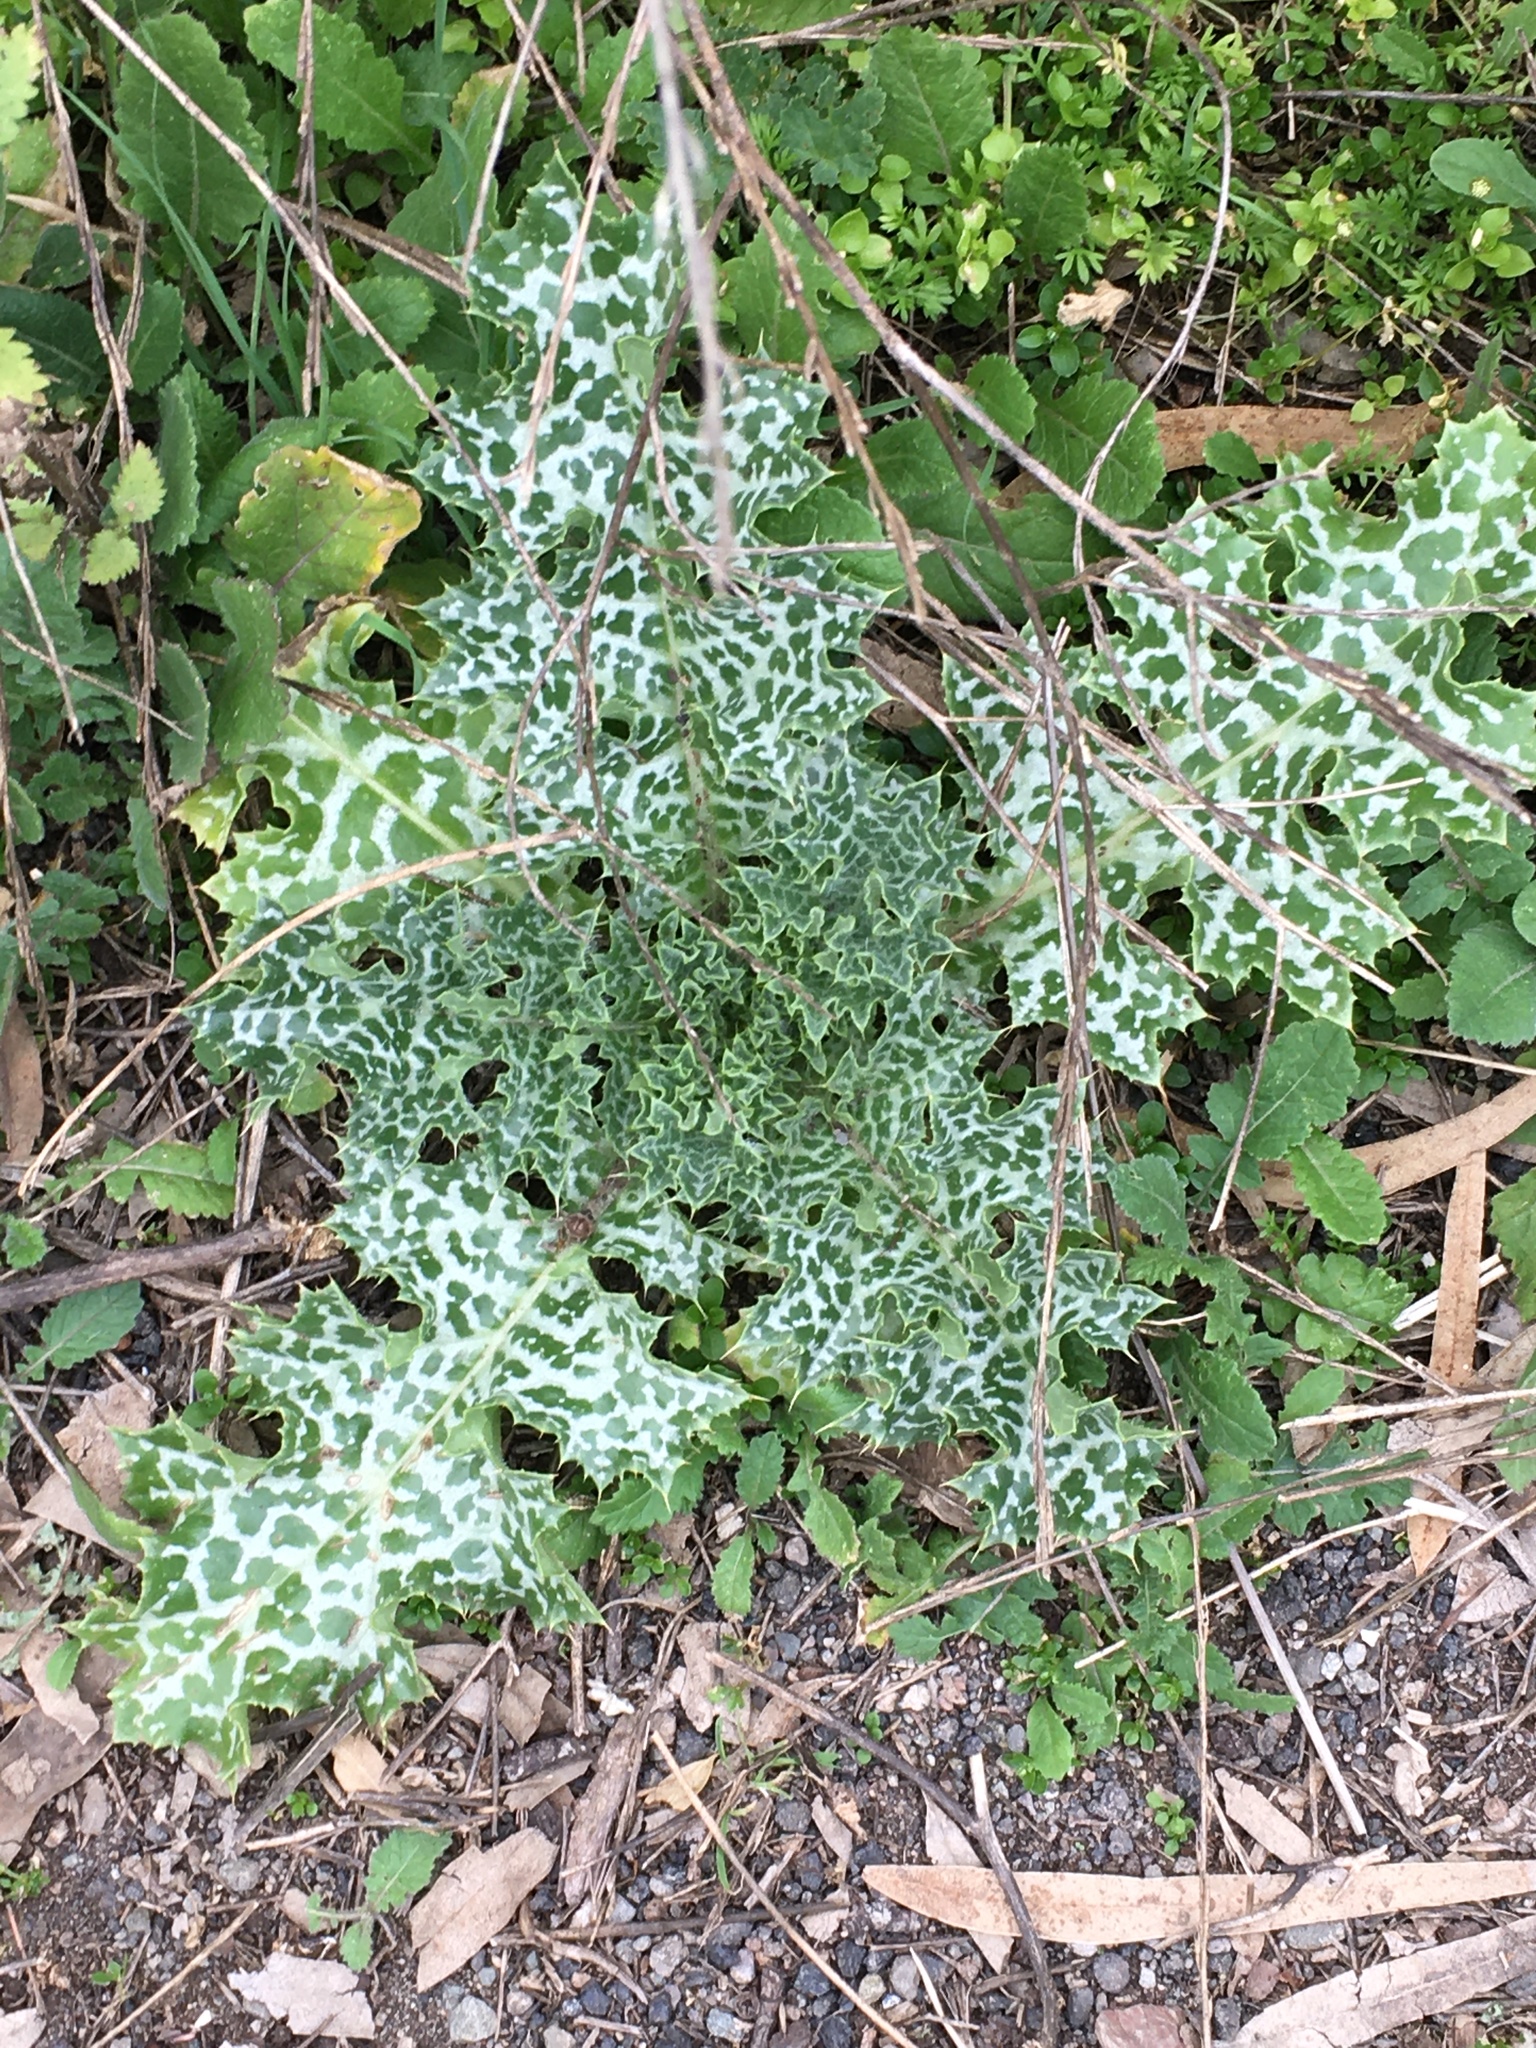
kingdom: Plantae
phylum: Tracheophyta
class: Magnoliopsida
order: Asterales
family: Asteraceae
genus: Silybum
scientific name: Silybum marianum
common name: Milk thistle
